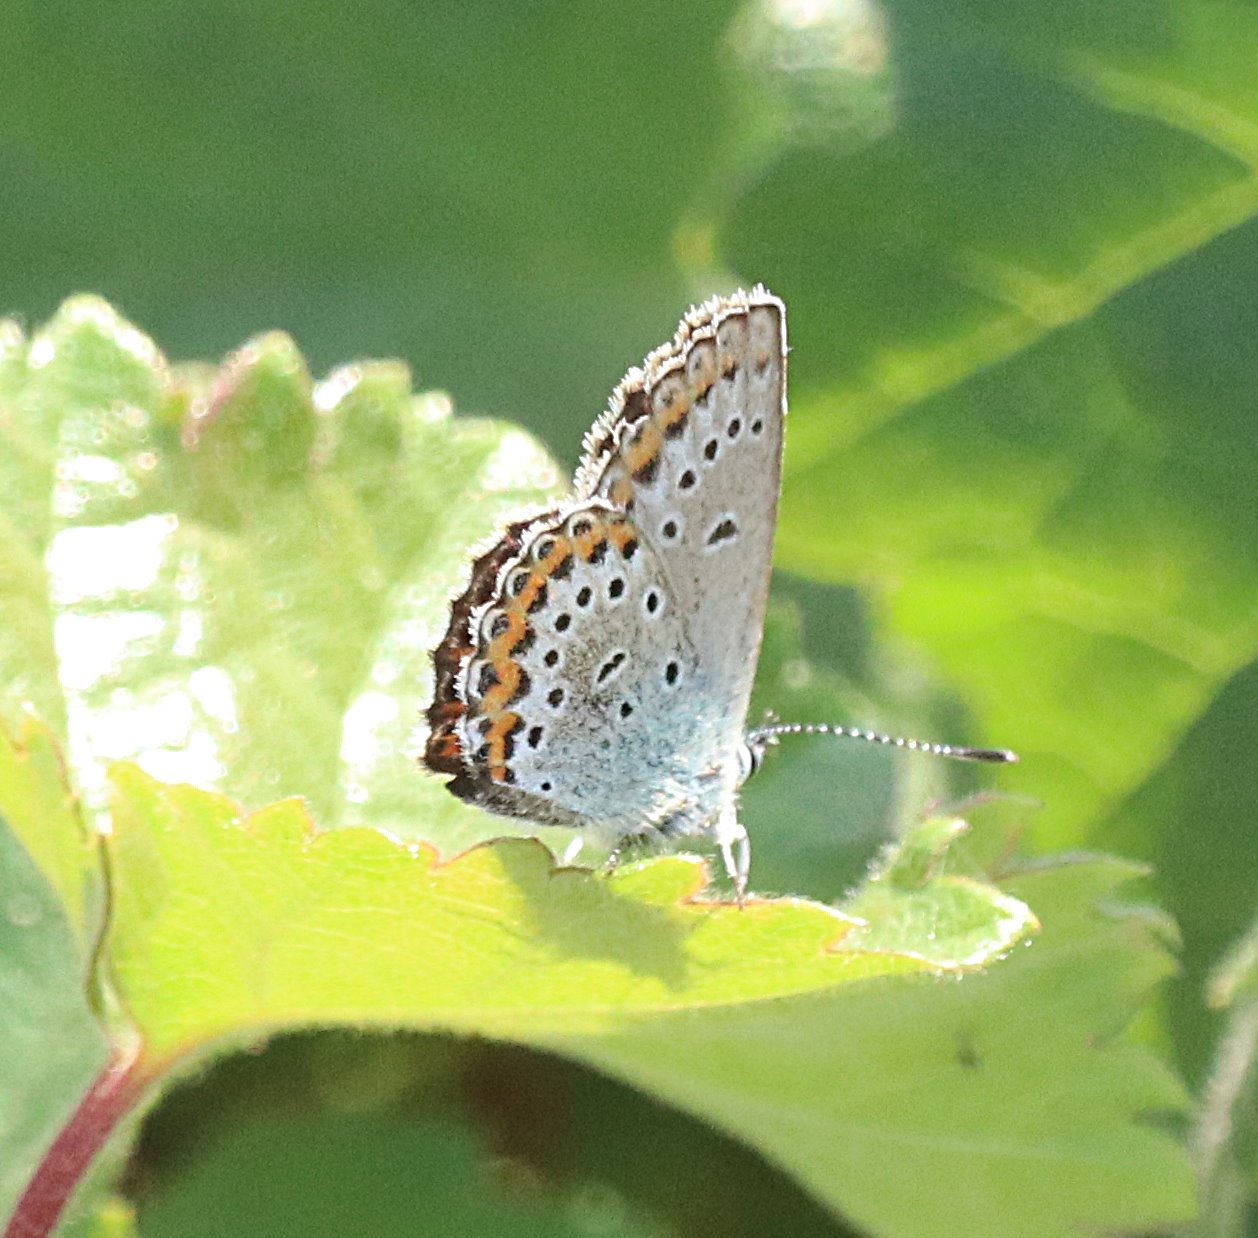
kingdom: Animalia
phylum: Arthropoda
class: Insecta
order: Lepidoptera
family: Lycaenidae
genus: Lycaeides
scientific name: Lycaeides idas
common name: Northern blue
